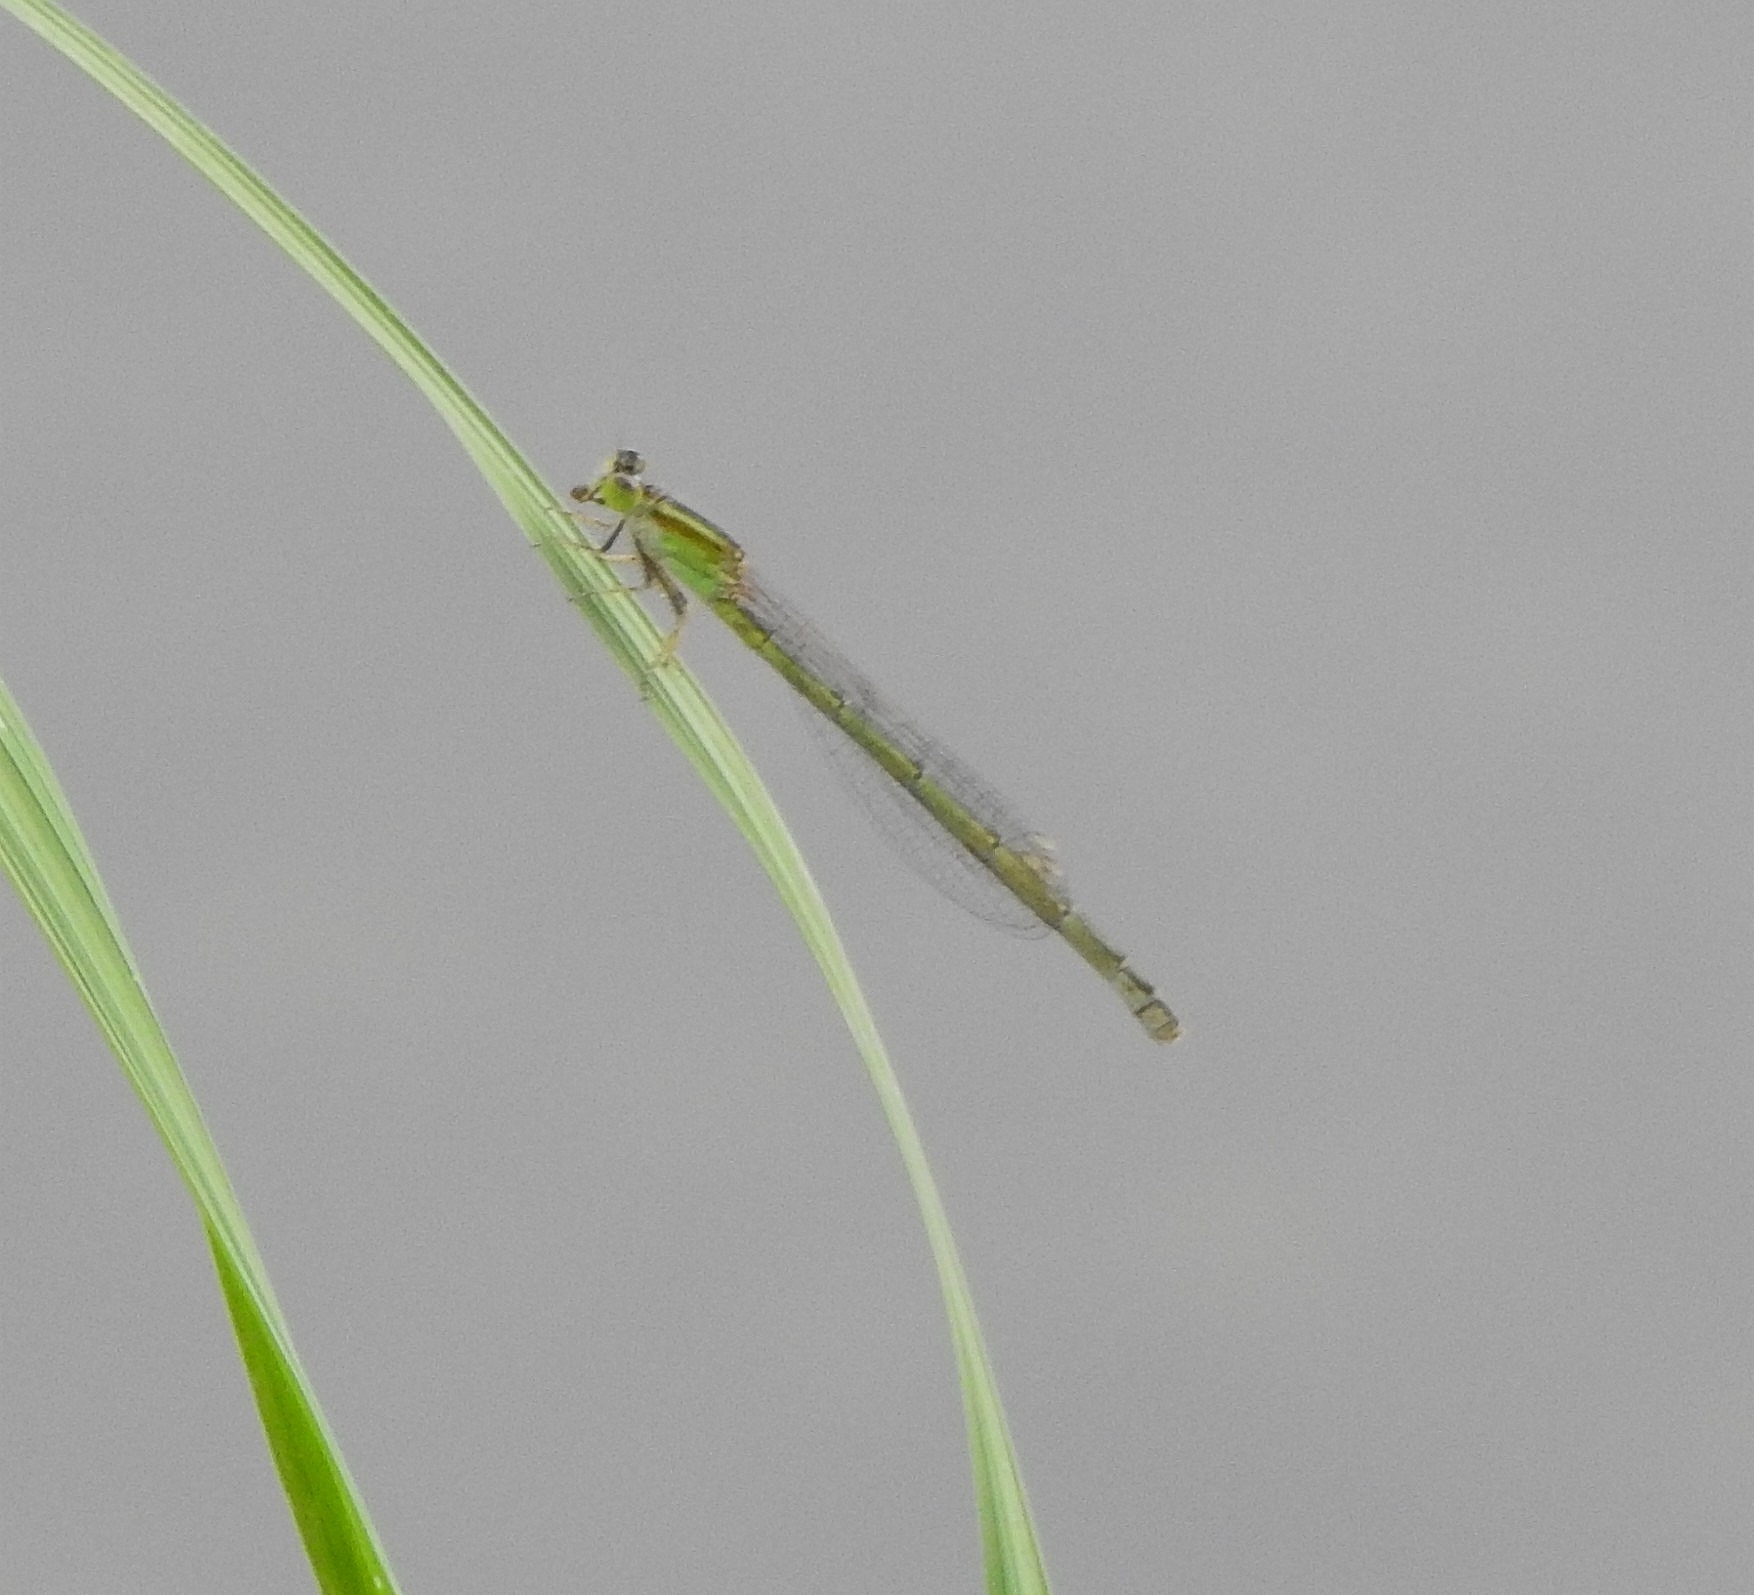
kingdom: Animalia
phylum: Arthropoda
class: Insecta
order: Odonata
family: Coenagrionidae
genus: Ischnura
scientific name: Ischnura senegalensis
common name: Tropical bluetail
